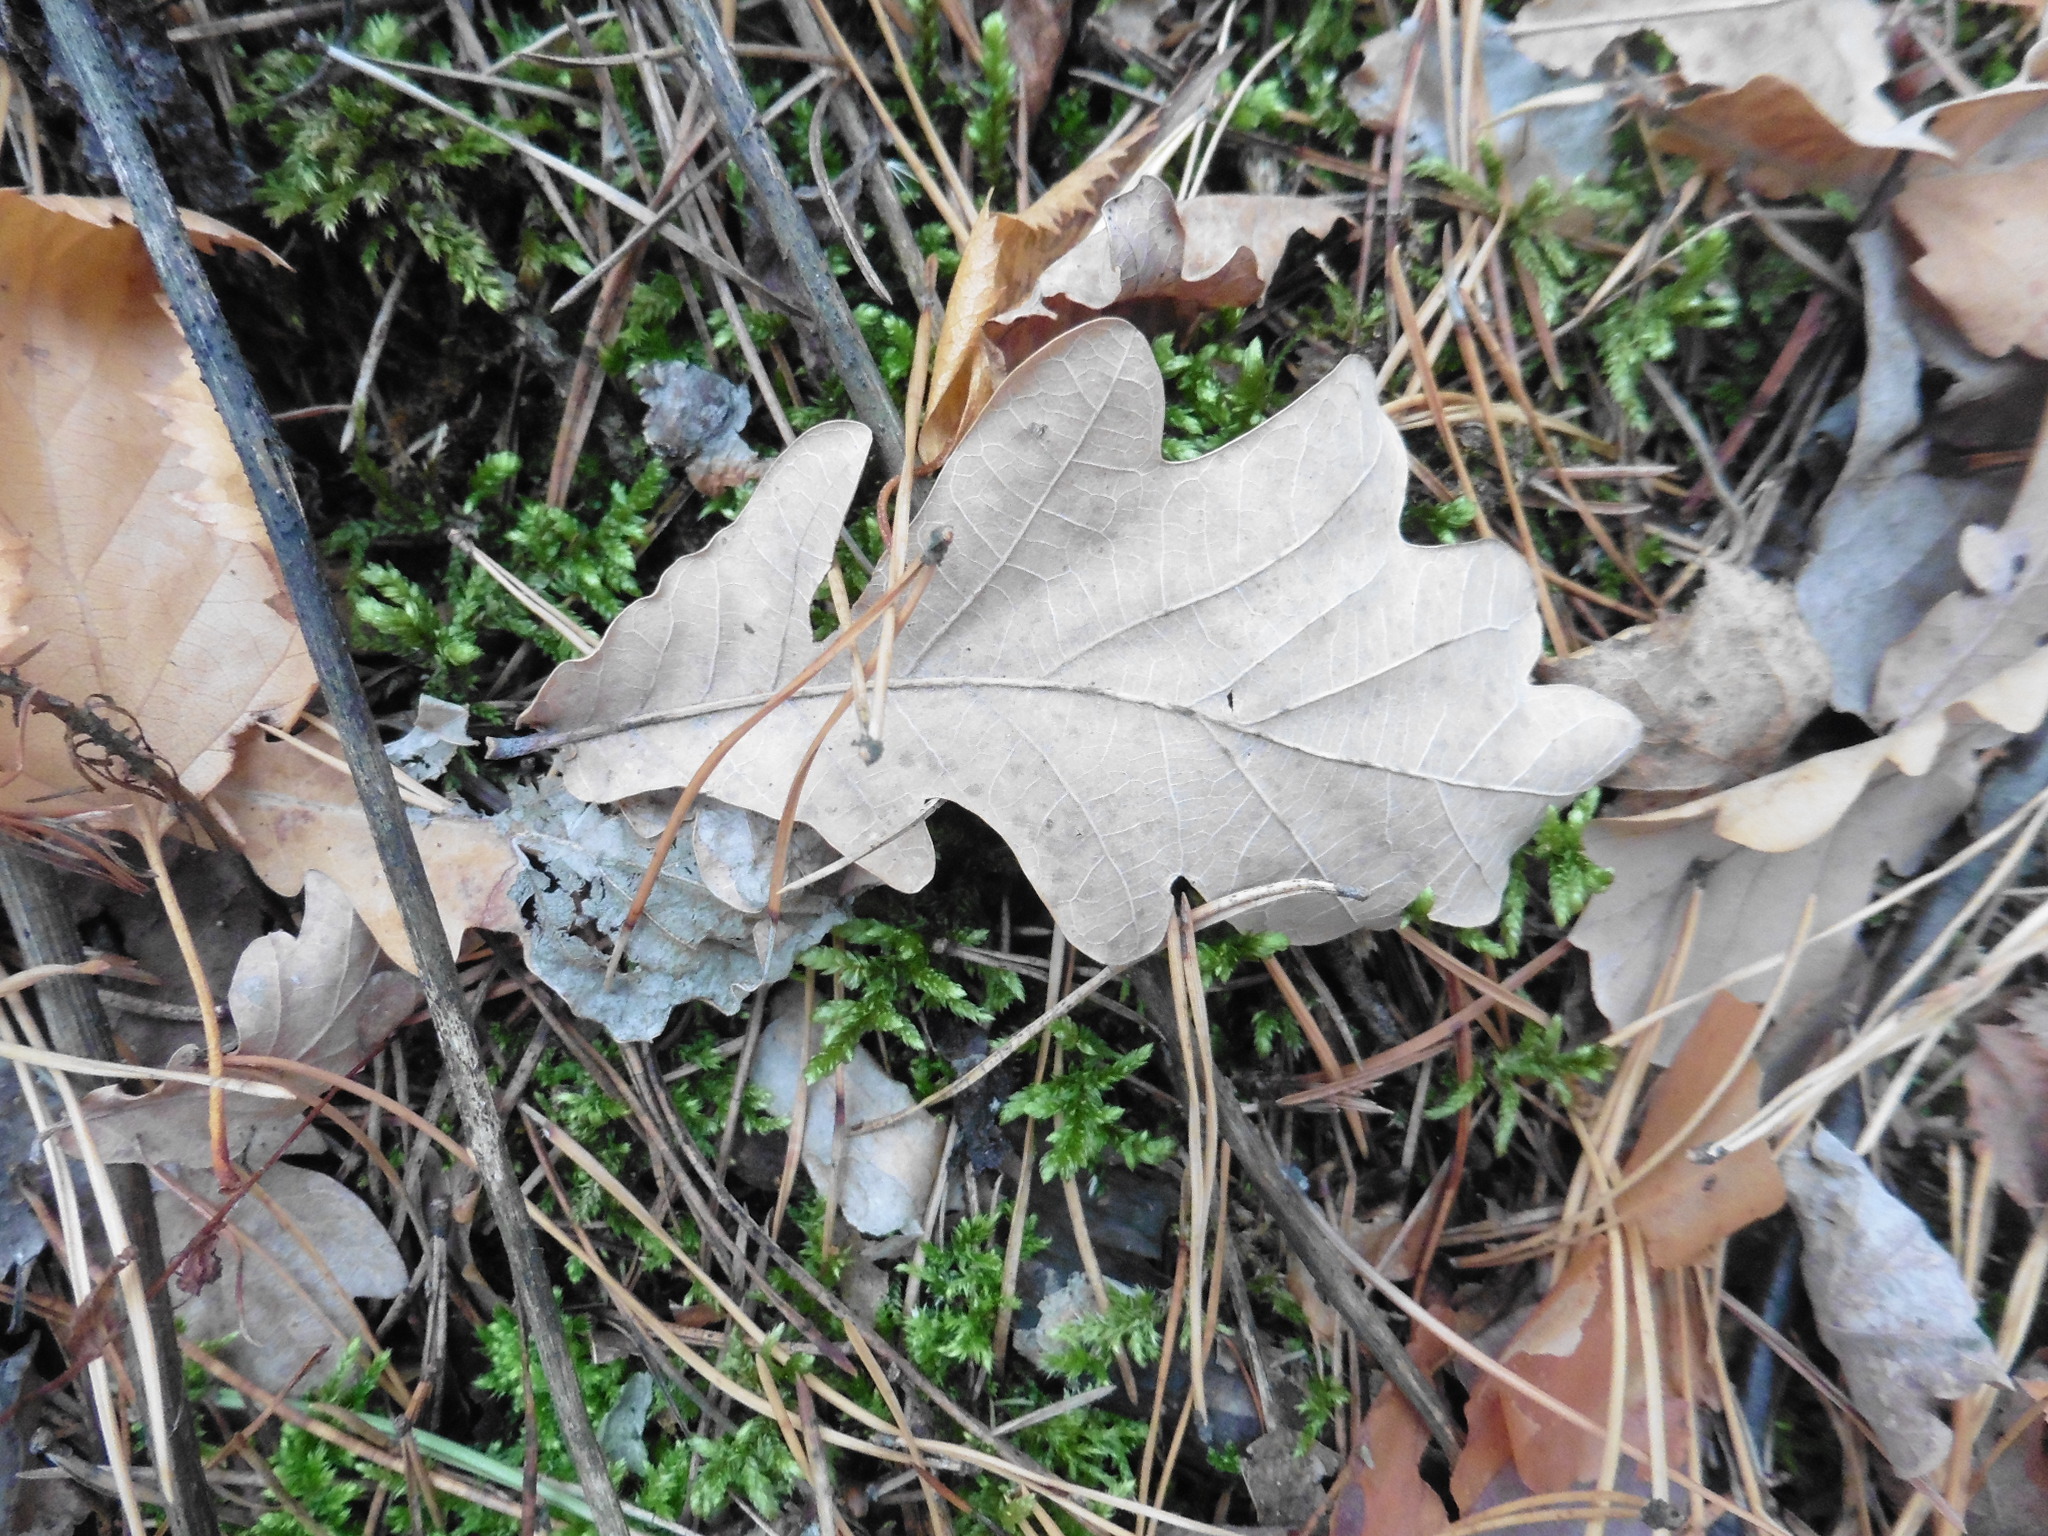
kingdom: Plantae
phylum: Tracheophyta
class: Magnoliopsida
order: Fagales
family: Fagaceae
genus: Quercus
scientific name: Quercus robur
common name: Pedunculate oak
